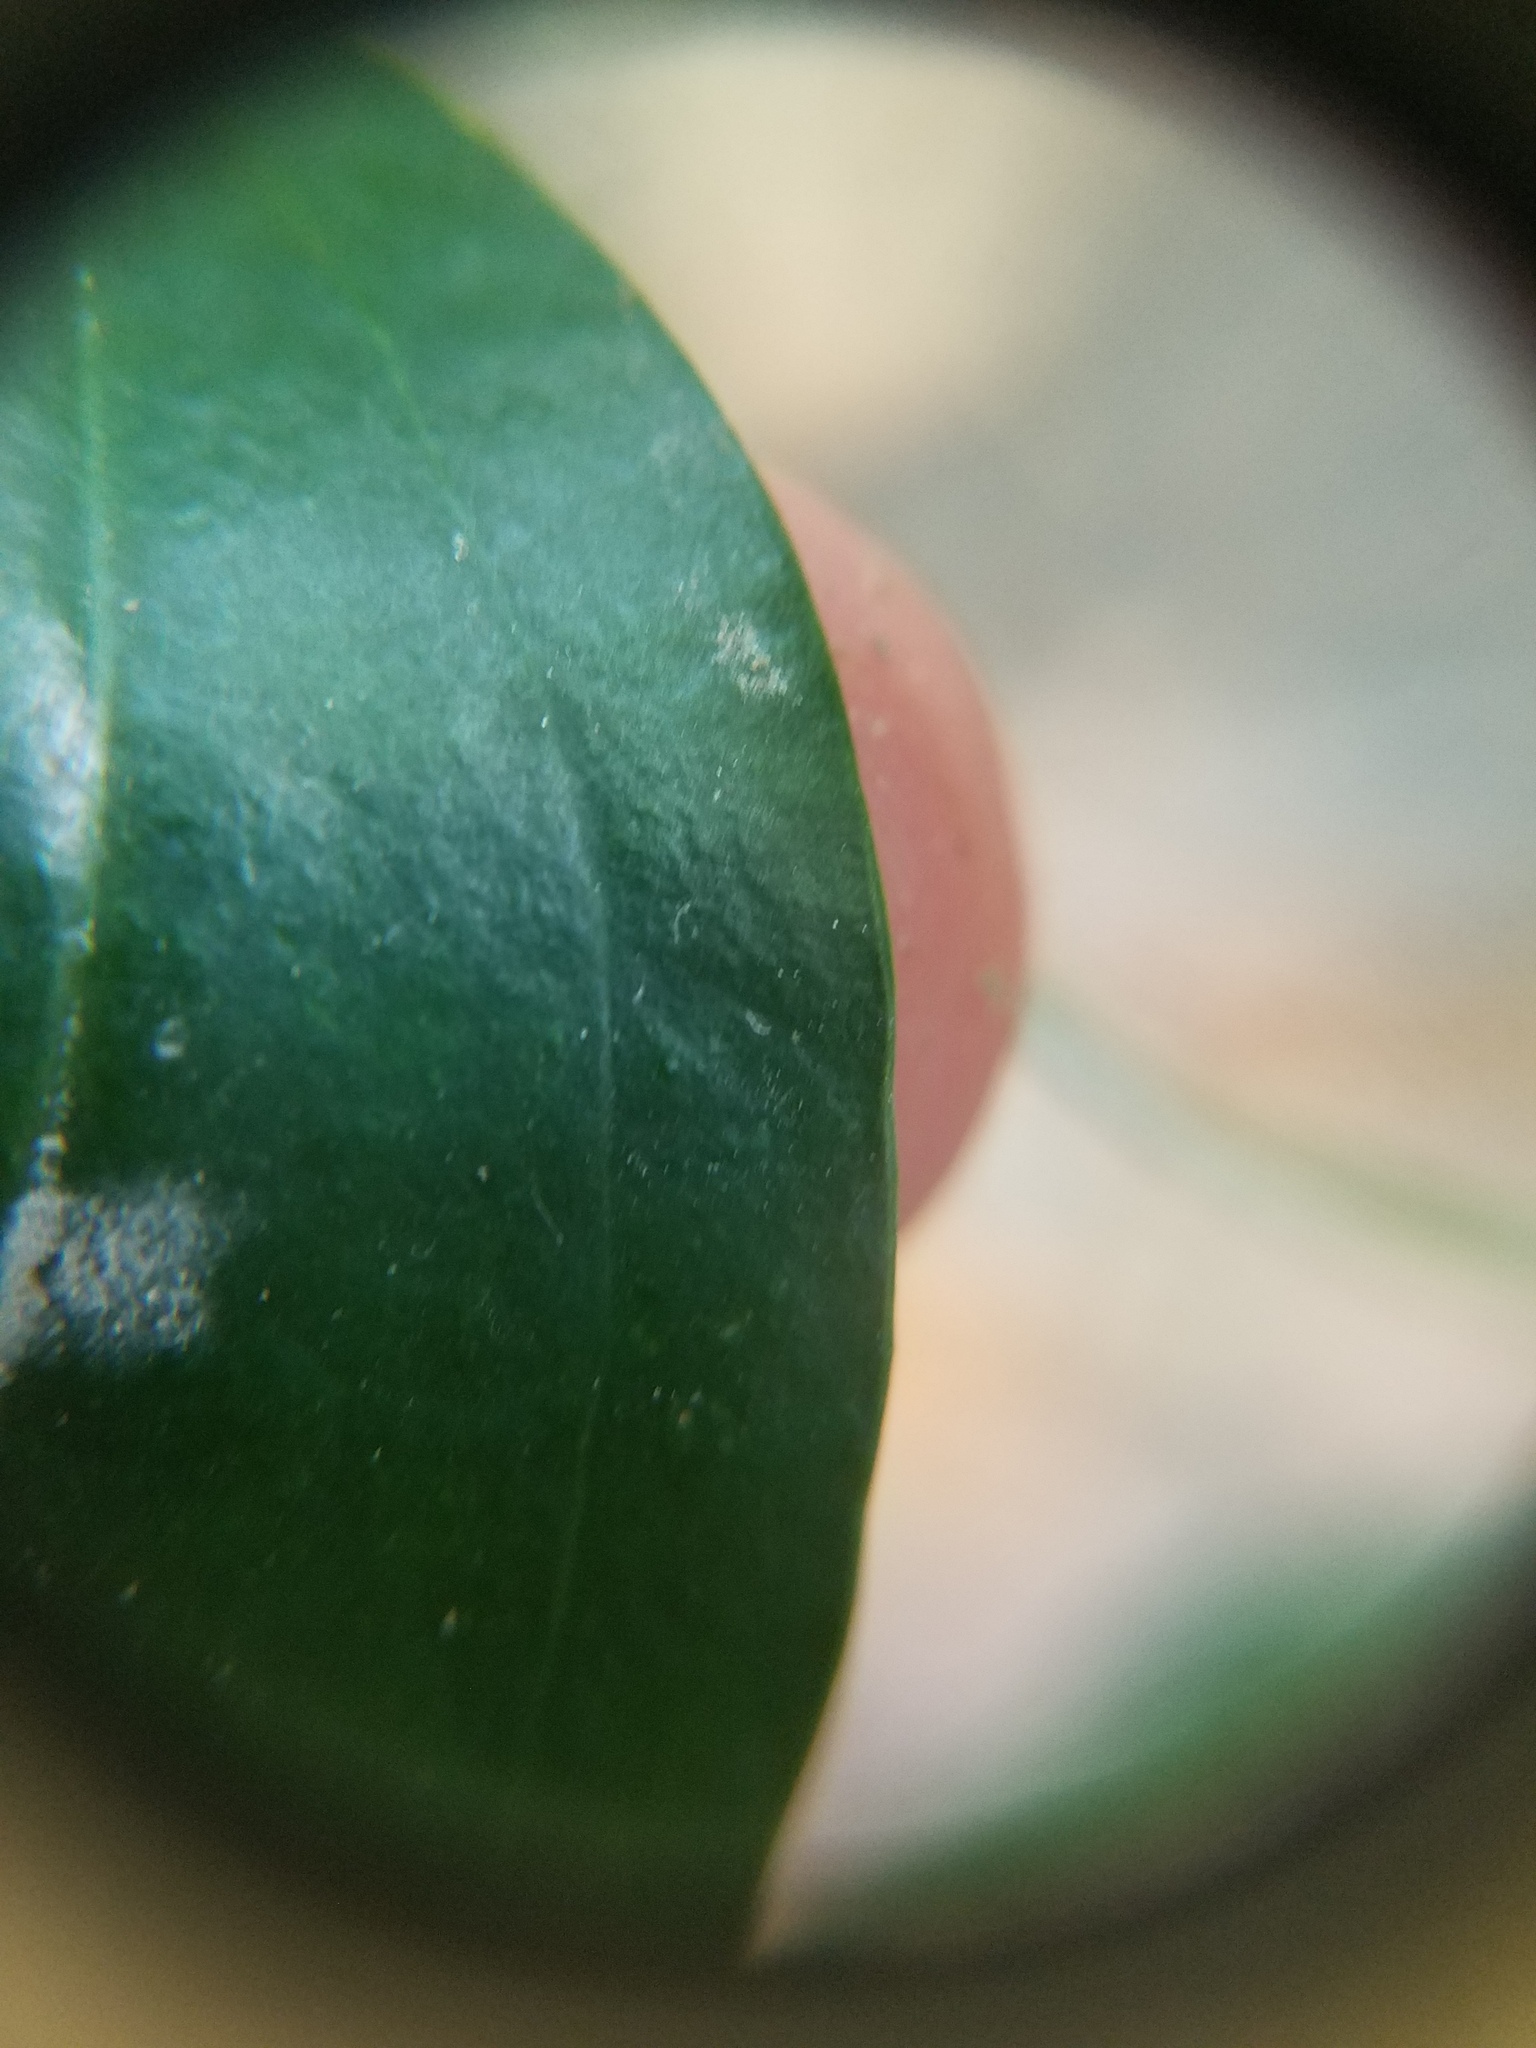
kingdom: Plantae
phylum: Tracheophyta
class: Liliopsida
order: Liliales
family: Smilacaceae
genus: Smilax
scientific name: Smilax maritima
